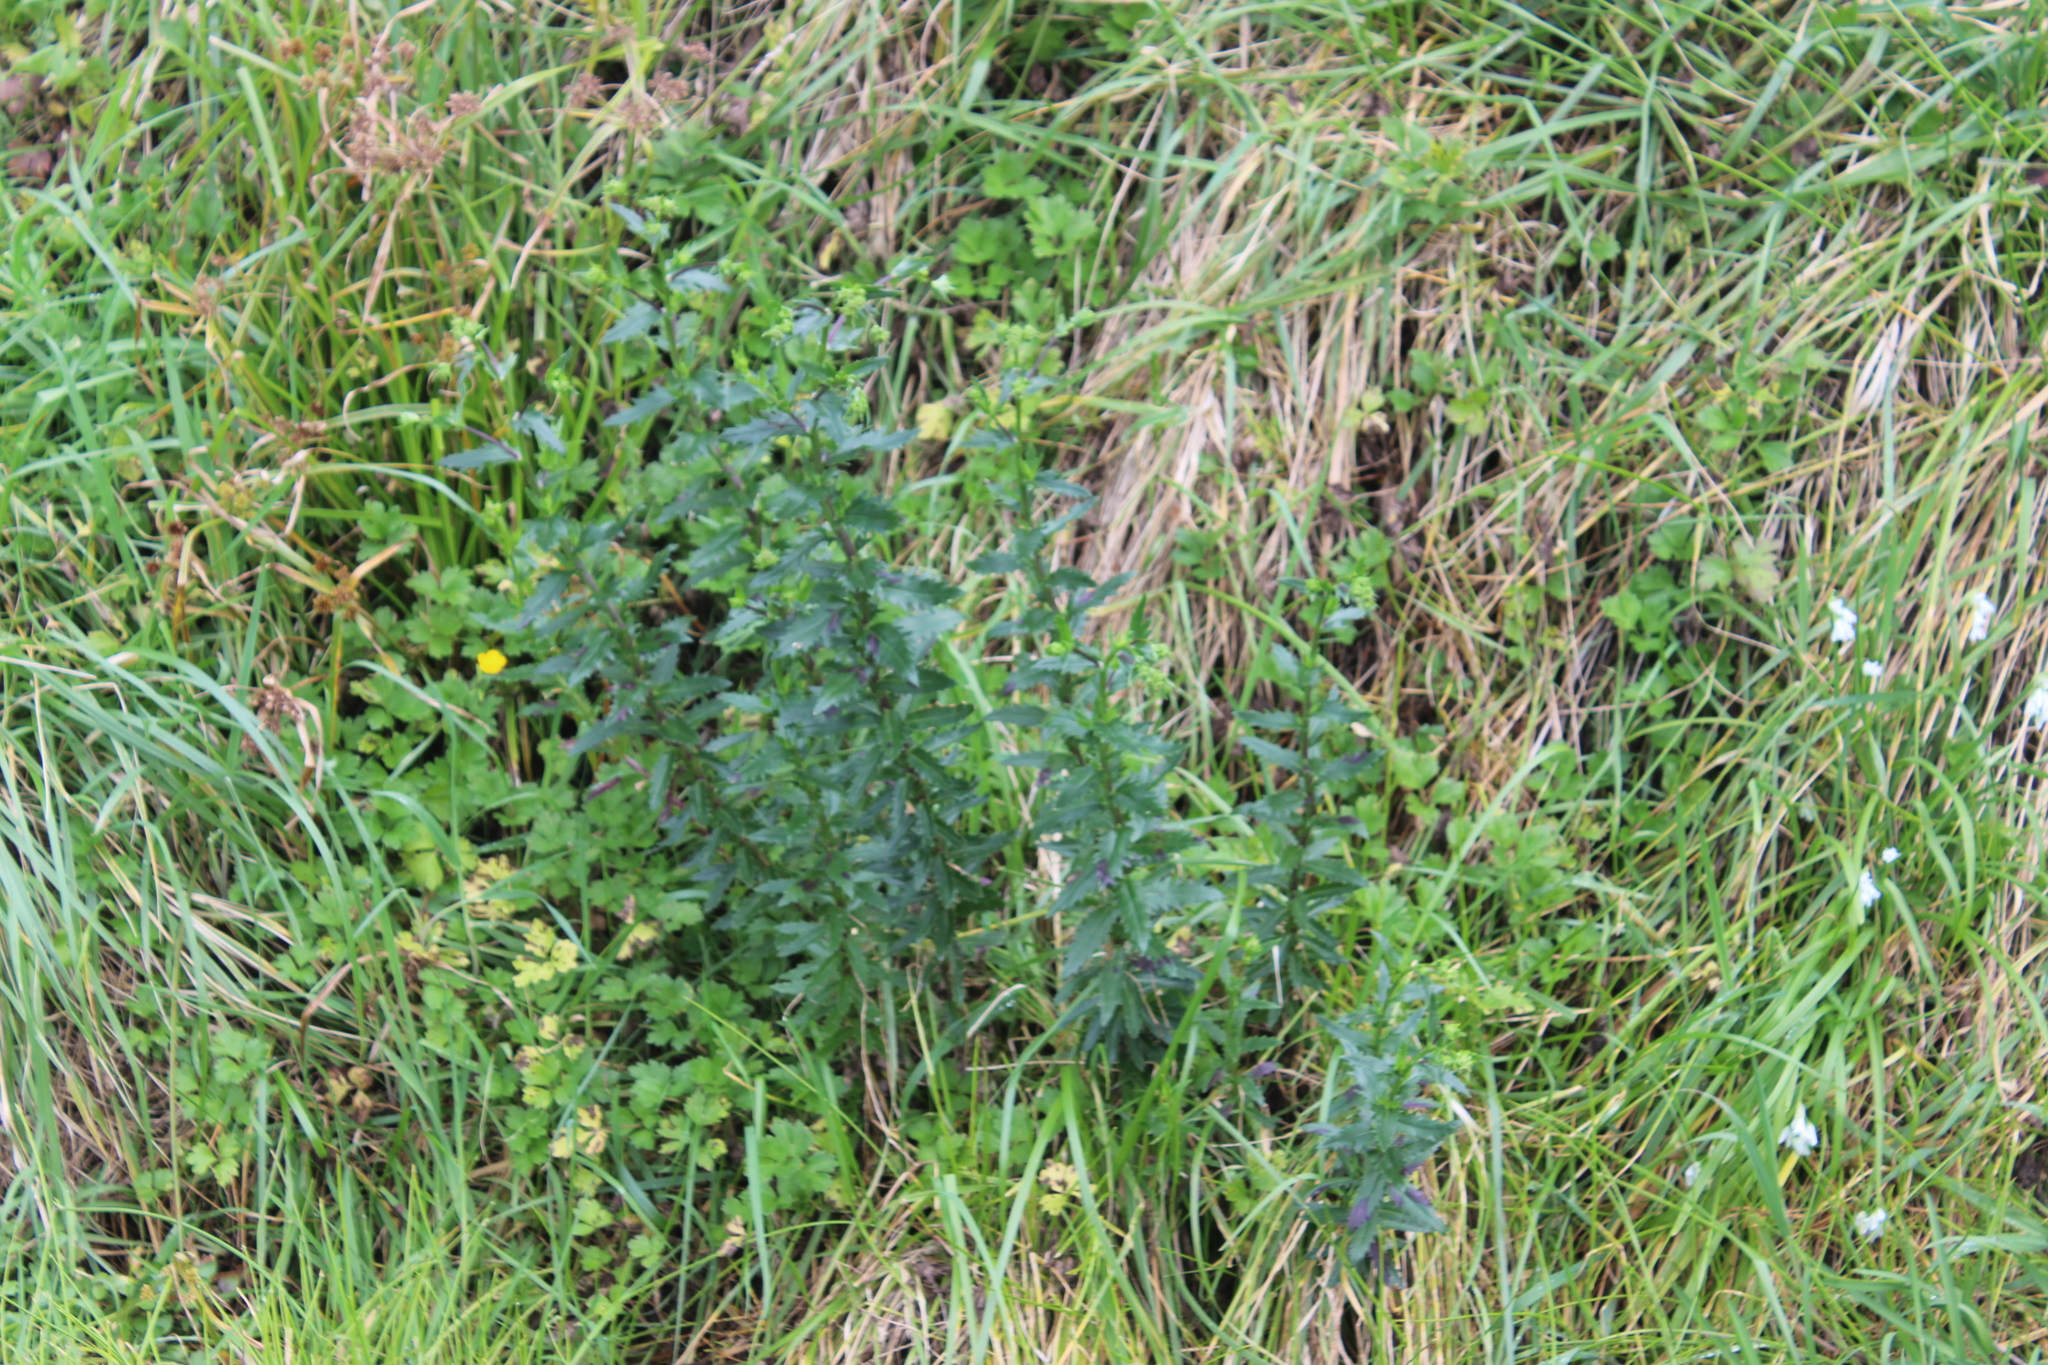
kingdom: Plantae
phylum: Tracheophyta
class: Magnoliopsida
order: Asterales
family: Asteraceae
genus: Senecio
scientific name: Senecio glastifolius
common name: Woad-leaved ragwort
